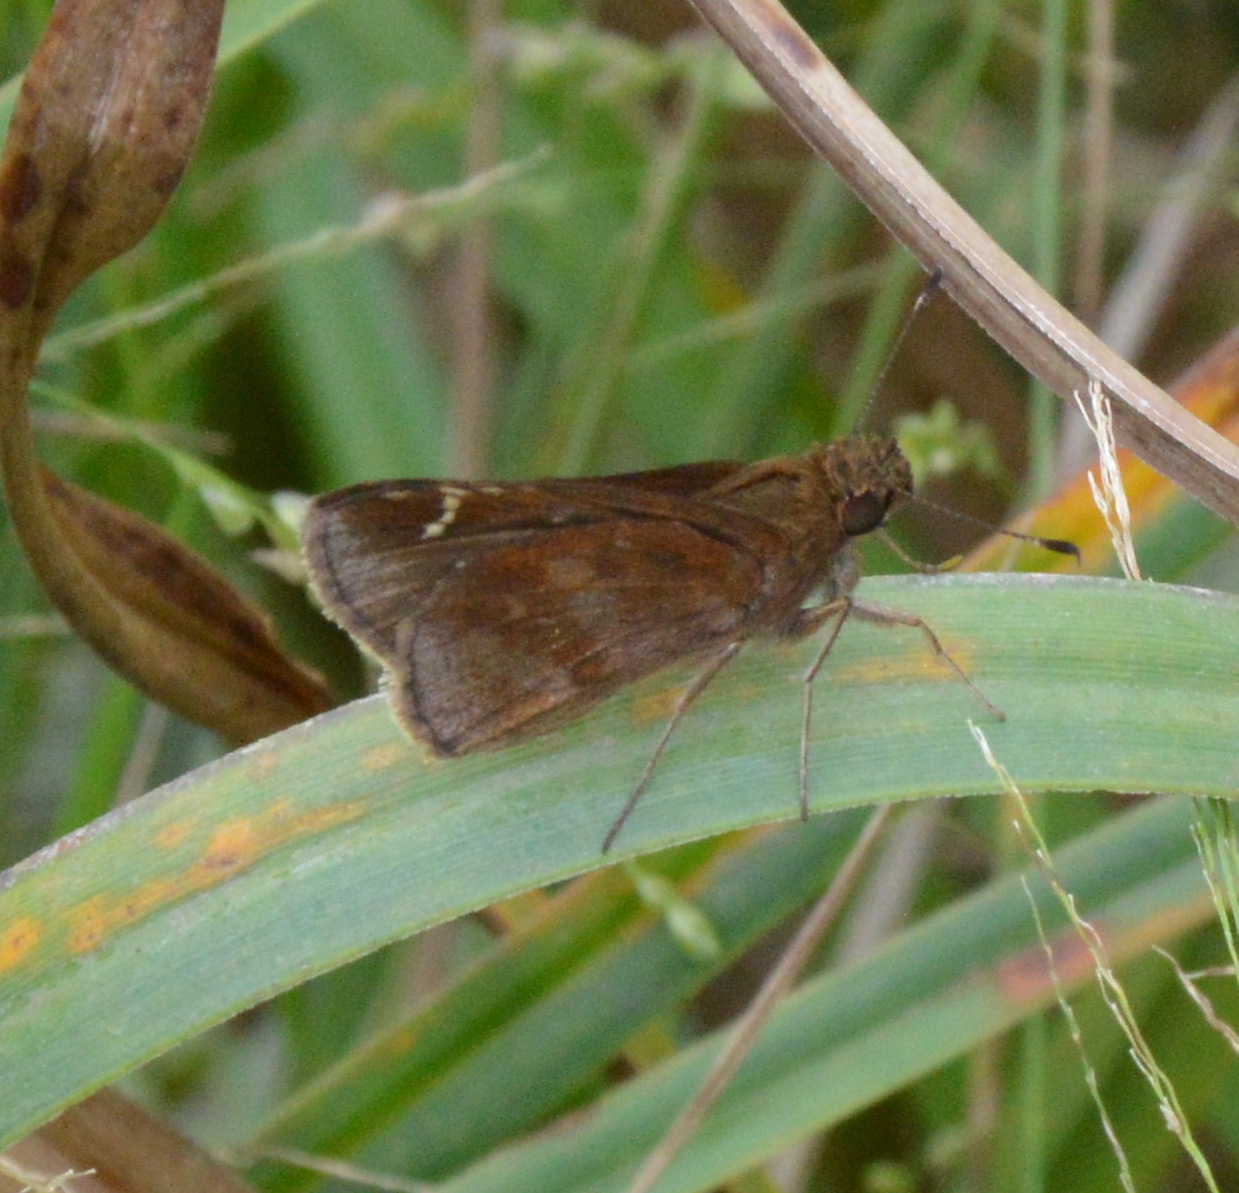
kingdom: Animalia
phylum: Arthropoda
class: Insecta
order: Lepidoptera
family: Hesperiidae
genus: Lerema
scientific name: Lerema accius
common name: Clouded skipper
